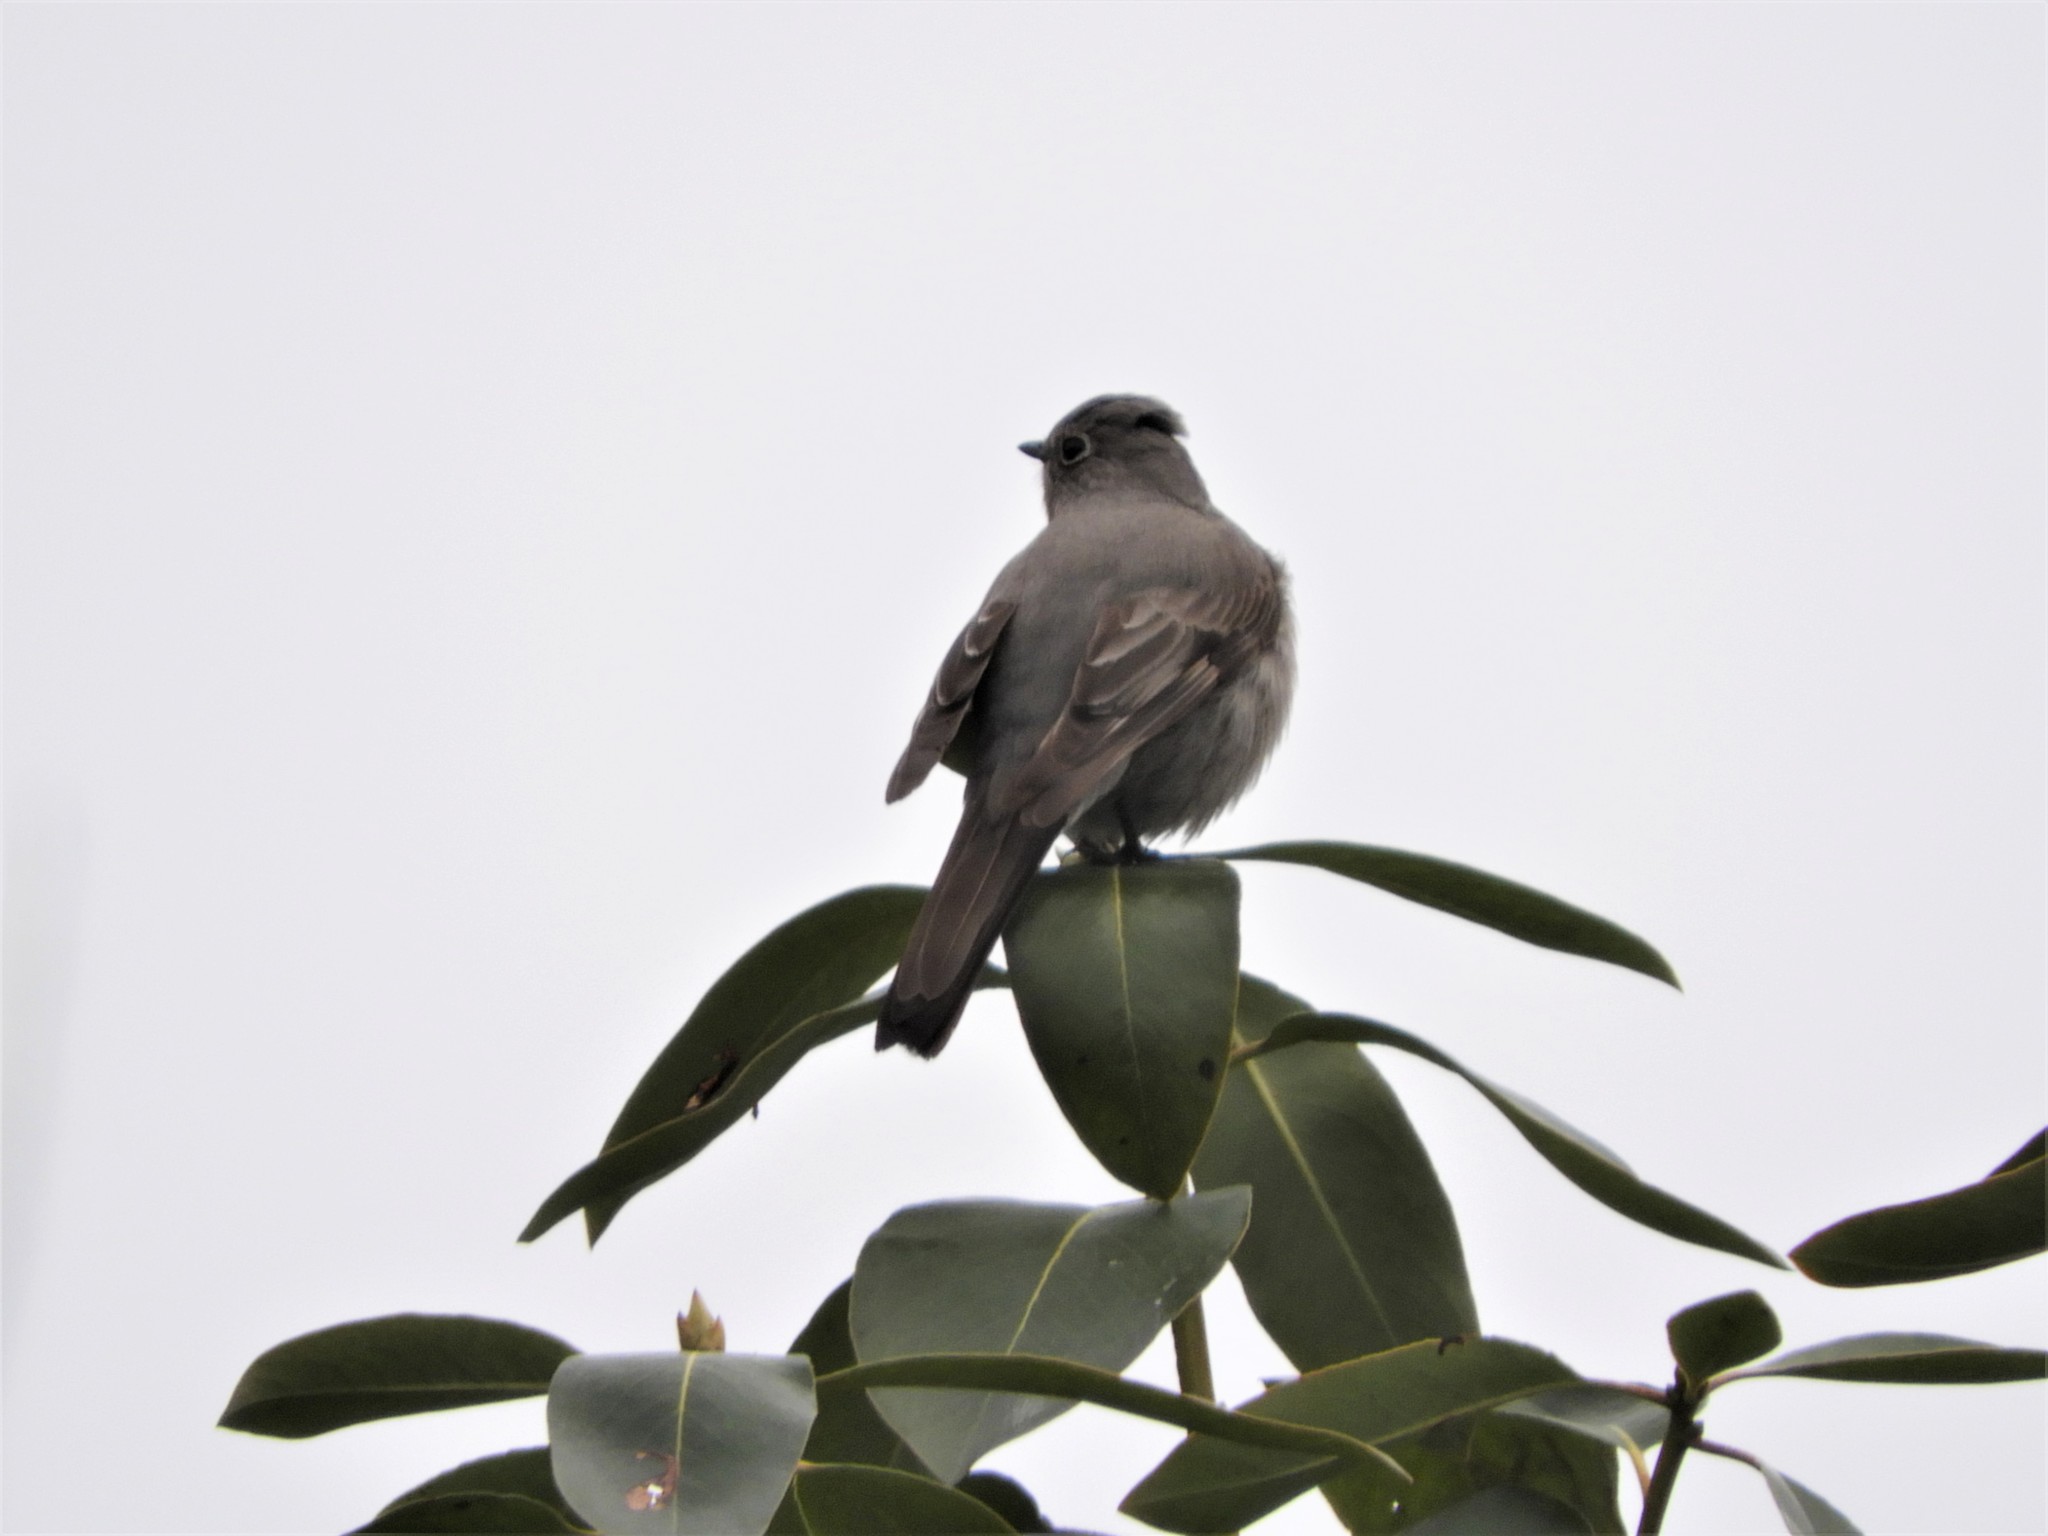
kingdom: Animalia
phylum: Chordata
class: Aves
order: Passeriformes
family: Turdidae
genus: Myadestes
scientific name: Myadestes townsendi
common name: Townsend's solitaire
